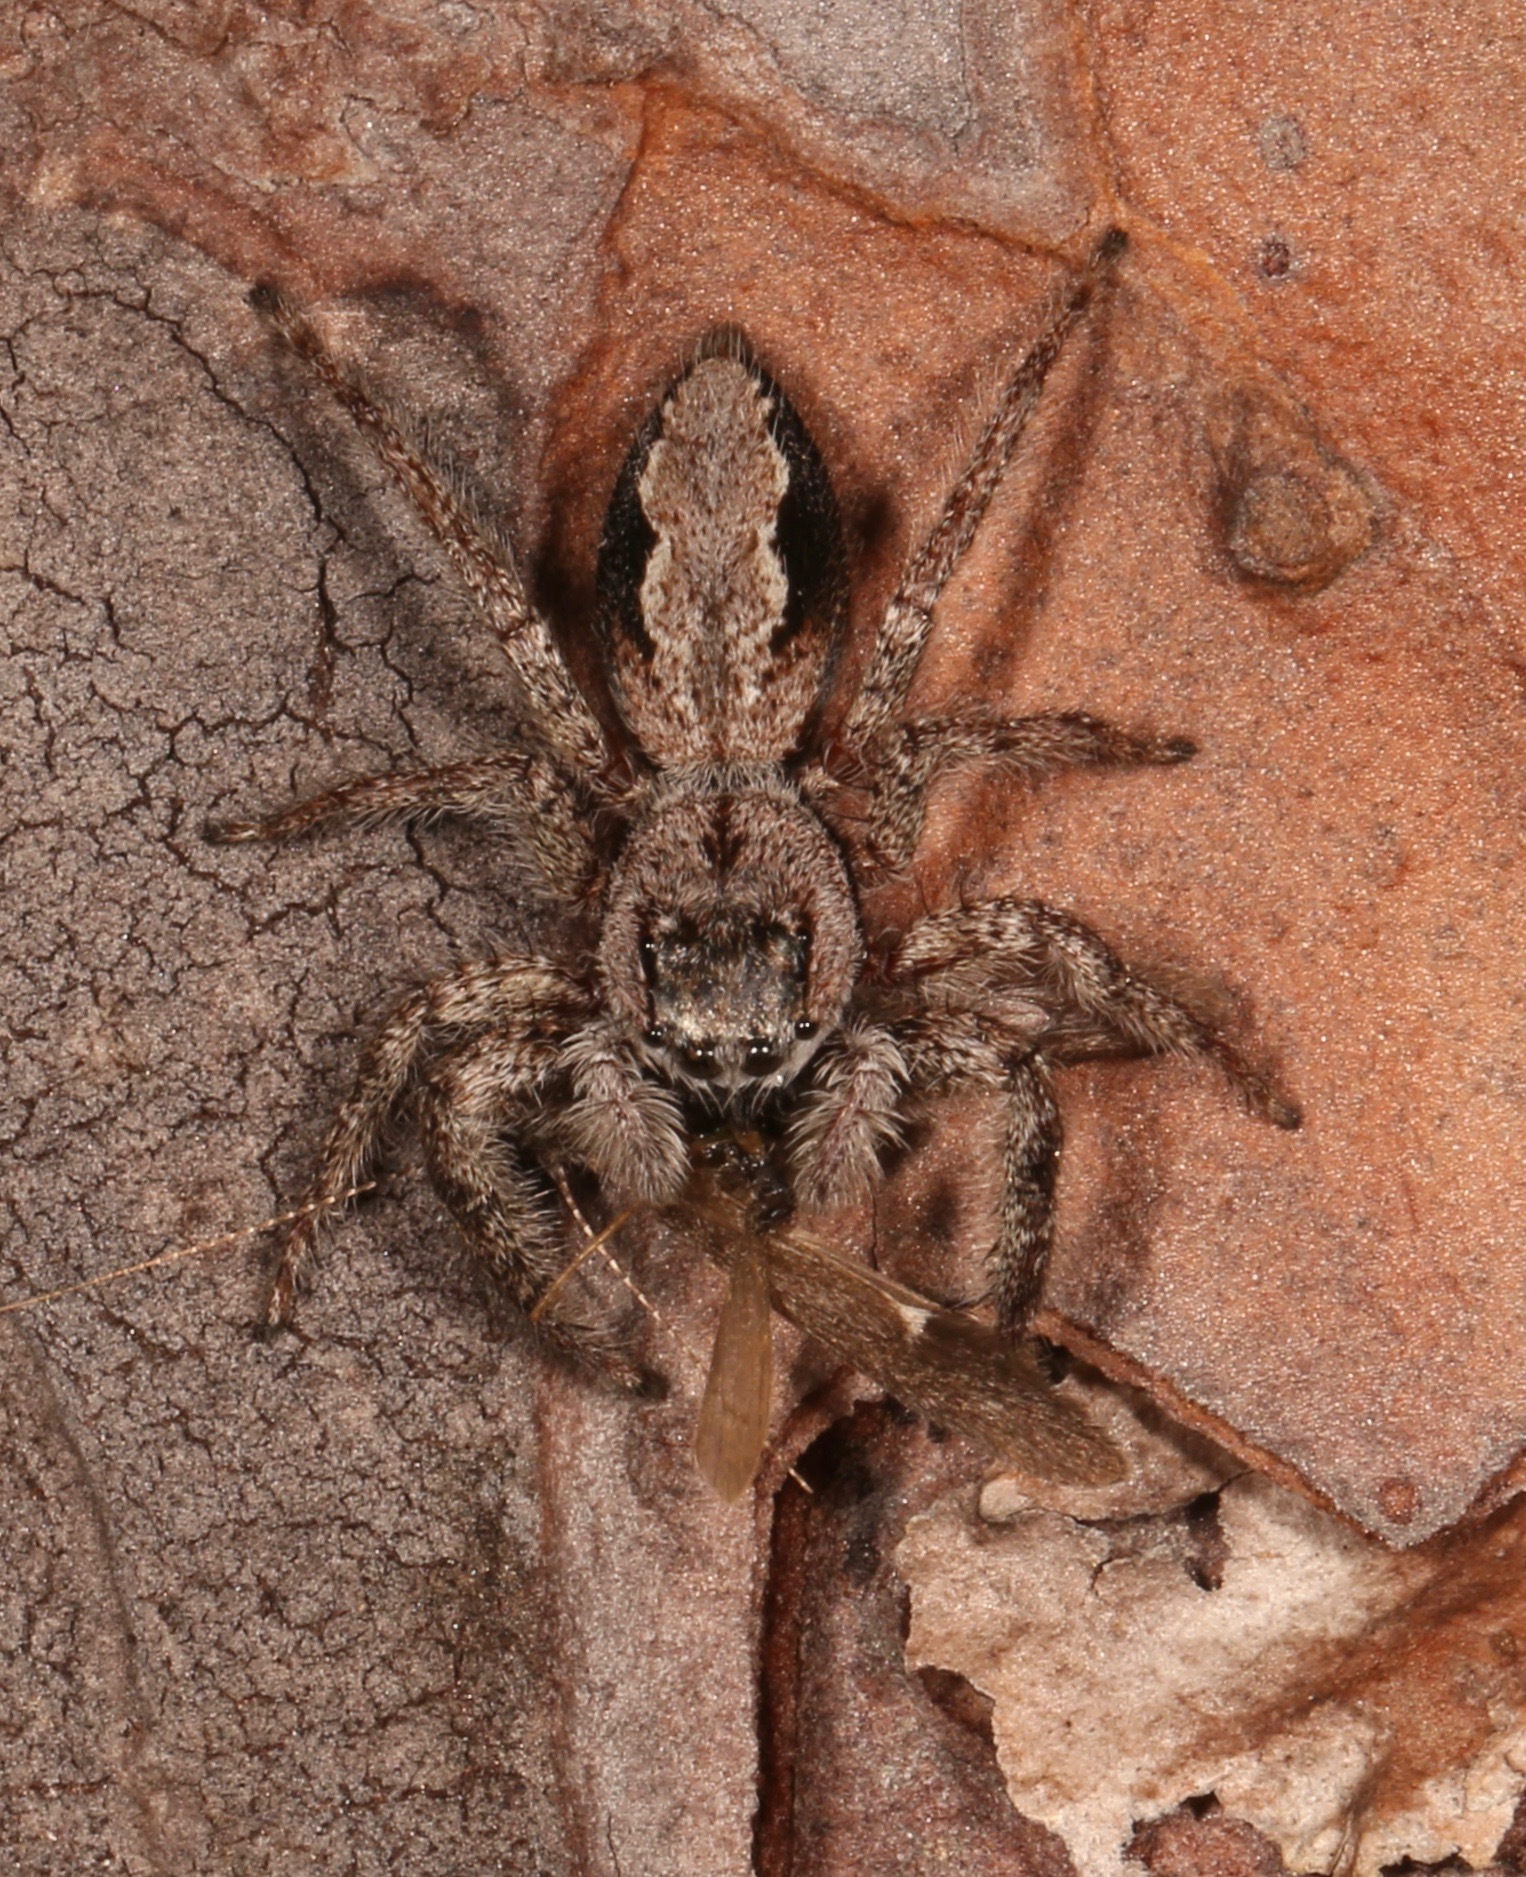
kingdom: Animalia
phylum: Arthropoda
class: Arachnida
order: Araneae
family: Salticidae
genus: Platycryptus
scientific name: Platycryptus undatus
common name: Tan jumping spider
